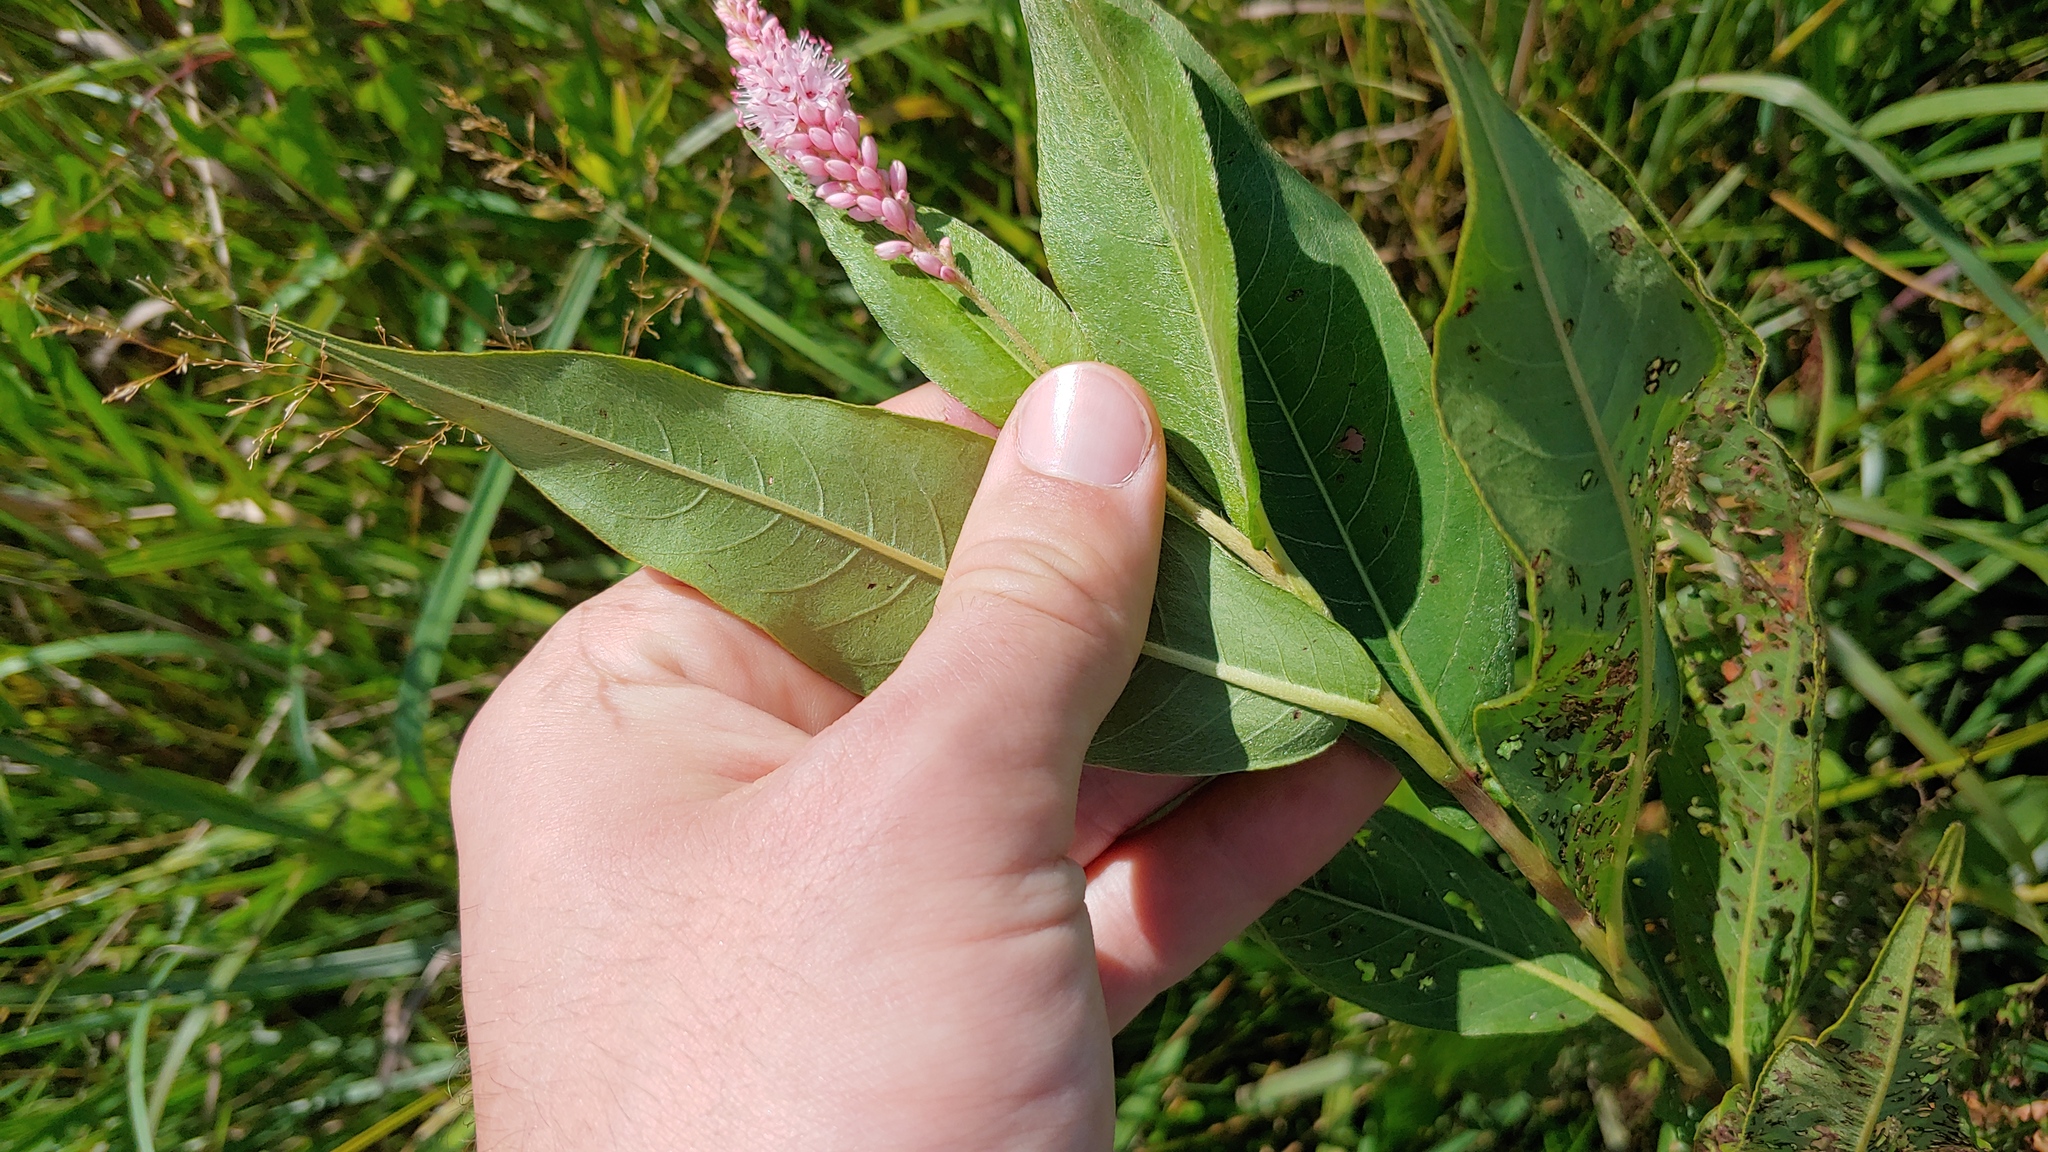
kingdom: Plantae
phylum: Tracheophyta
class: Magnoliopsida
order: Caryophyllales
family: Polygonaceae
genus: Persicaria
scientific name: Persicaria amphibia
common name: Amphibious bistort
